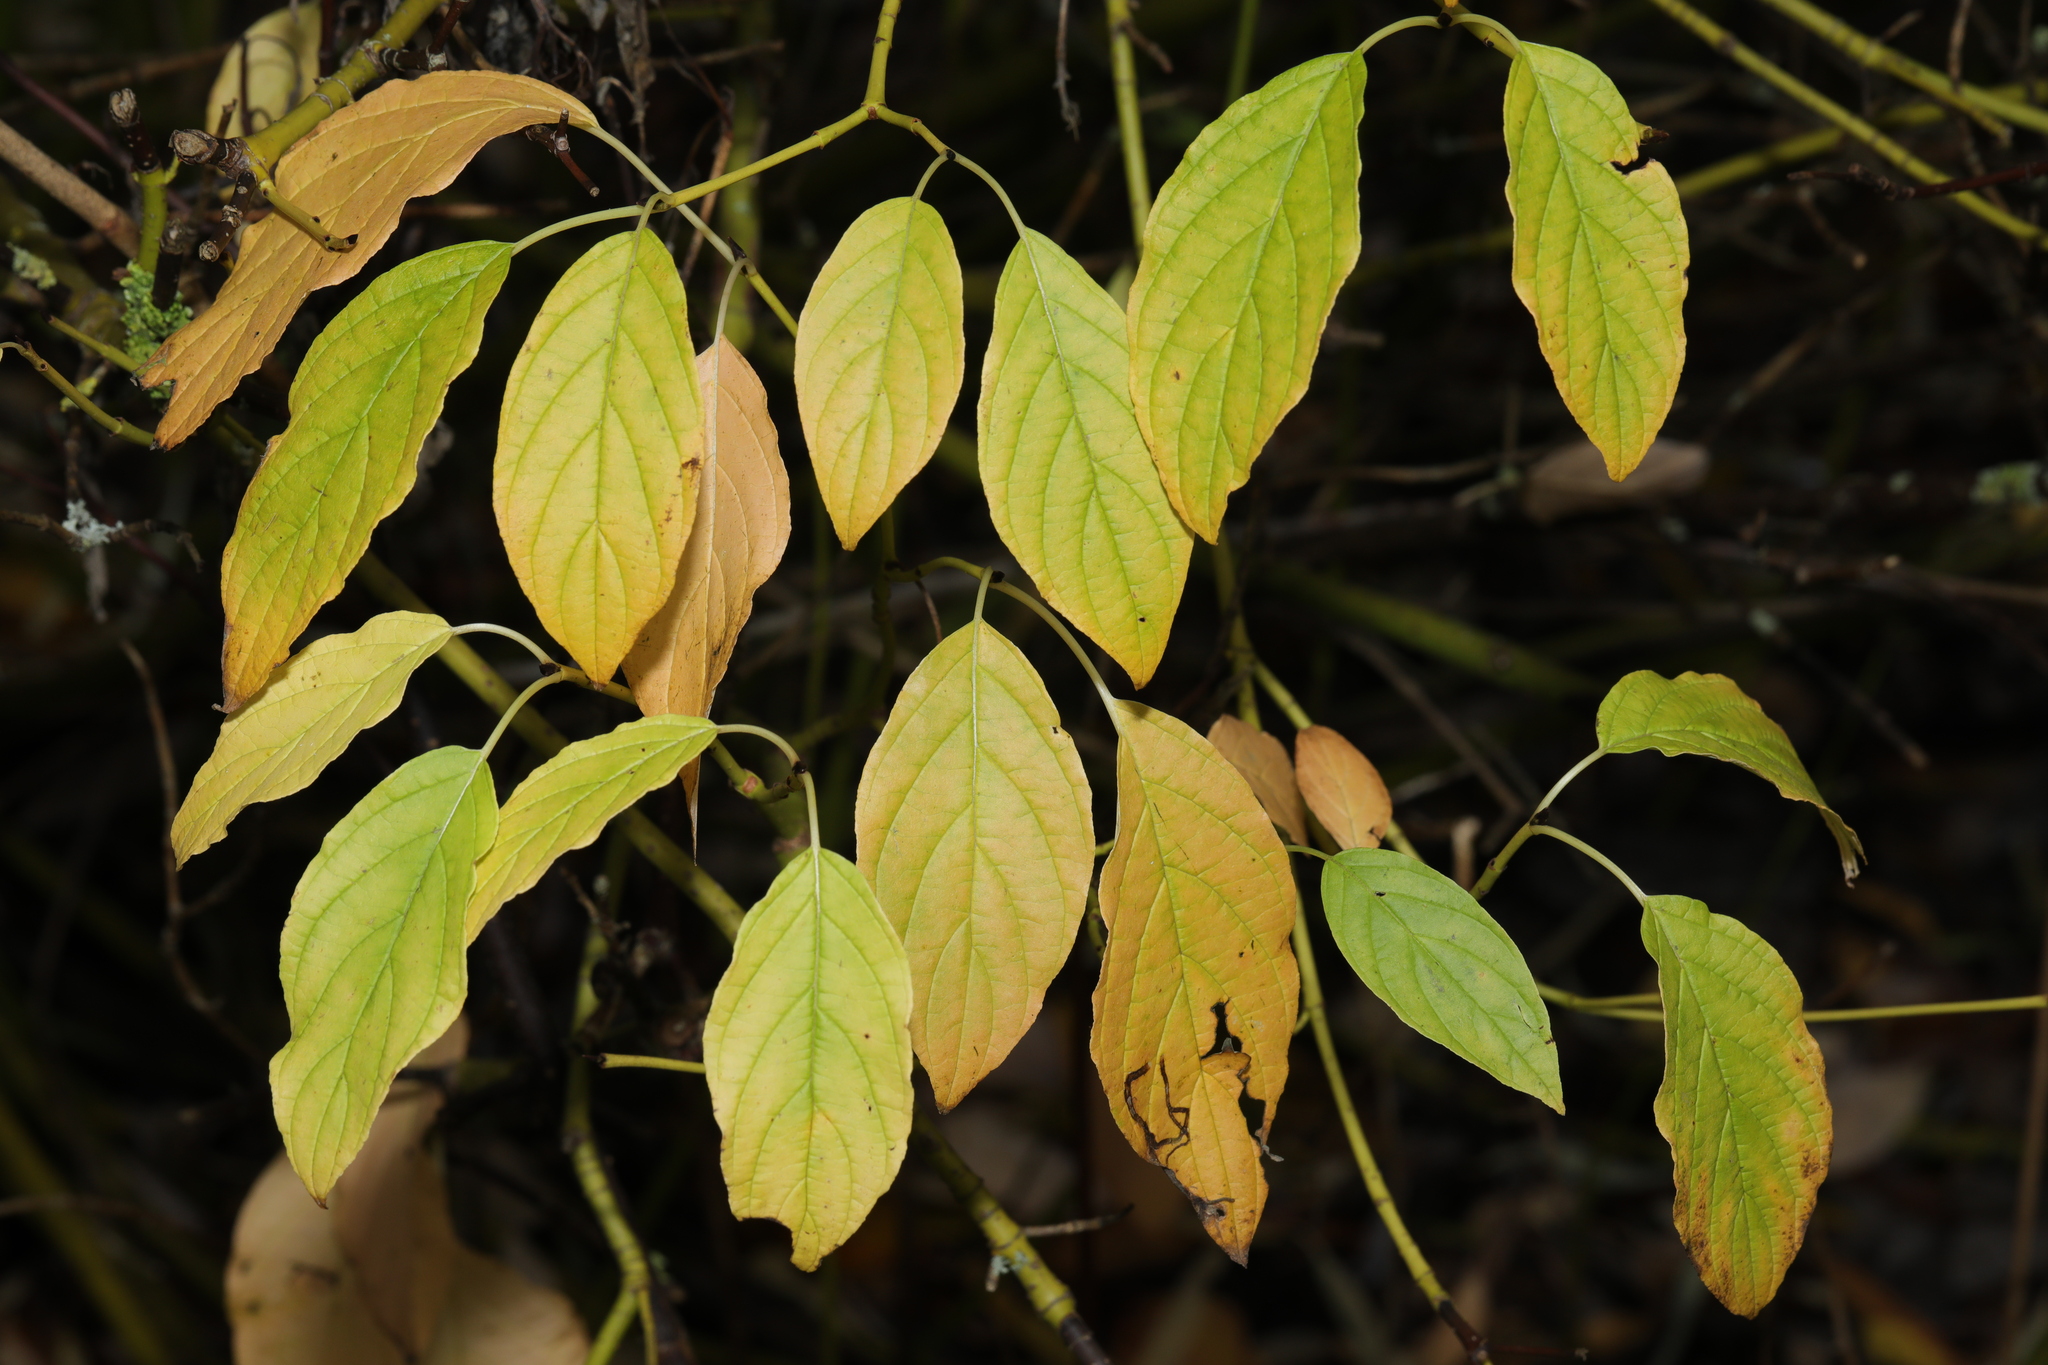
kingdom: Plantae
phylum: Tracheophyta
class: Magnoliopsida
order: Cornales
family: Cornaceae
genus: Cornus
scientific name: Cornus alba
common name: White dogwood
